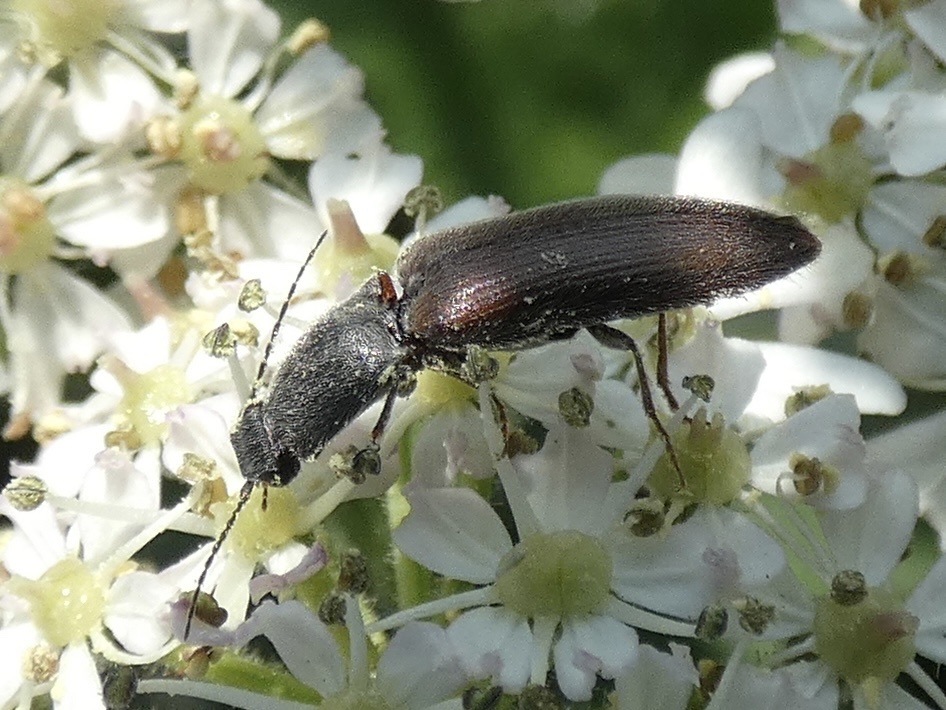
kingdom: Animalia
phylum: Arthropoda
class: Insecta
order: Coleoptera
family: Elateridae
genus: Athous
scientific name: Athous haemorrhoidalis
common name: Red-brown click beetle
